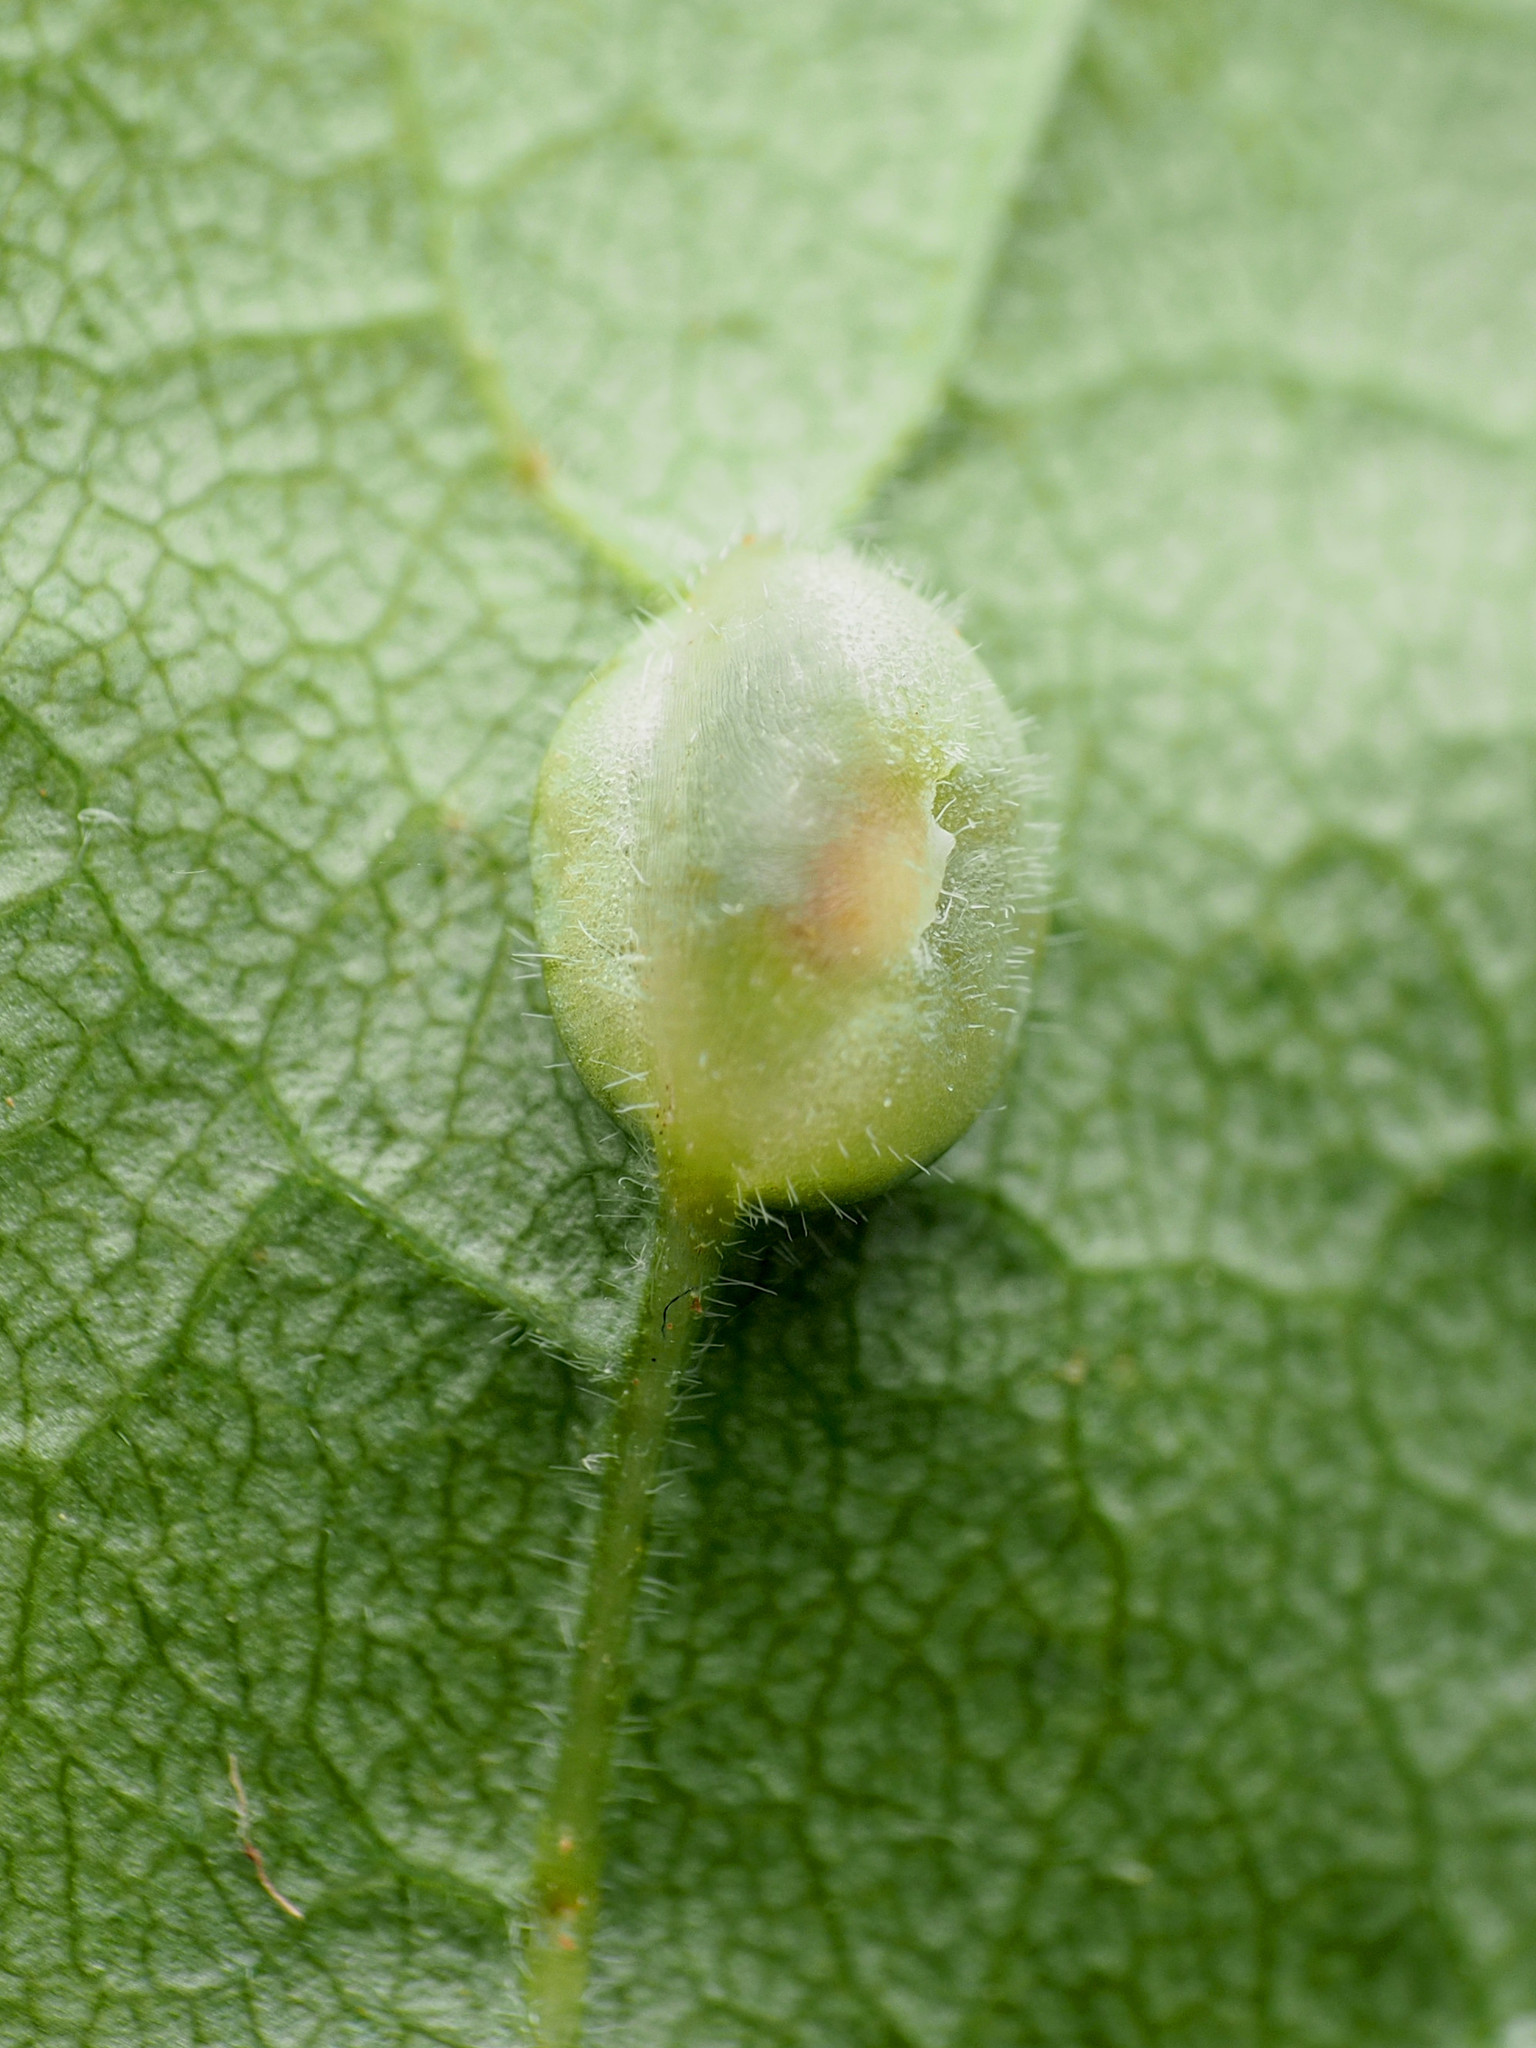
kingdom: Animalia
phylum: Arthropoda
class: Insecta
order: Diptera
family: Cecidomyiidae
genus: Dasineura
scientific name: Dasineura pellex
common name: Ash bullet gall midge
